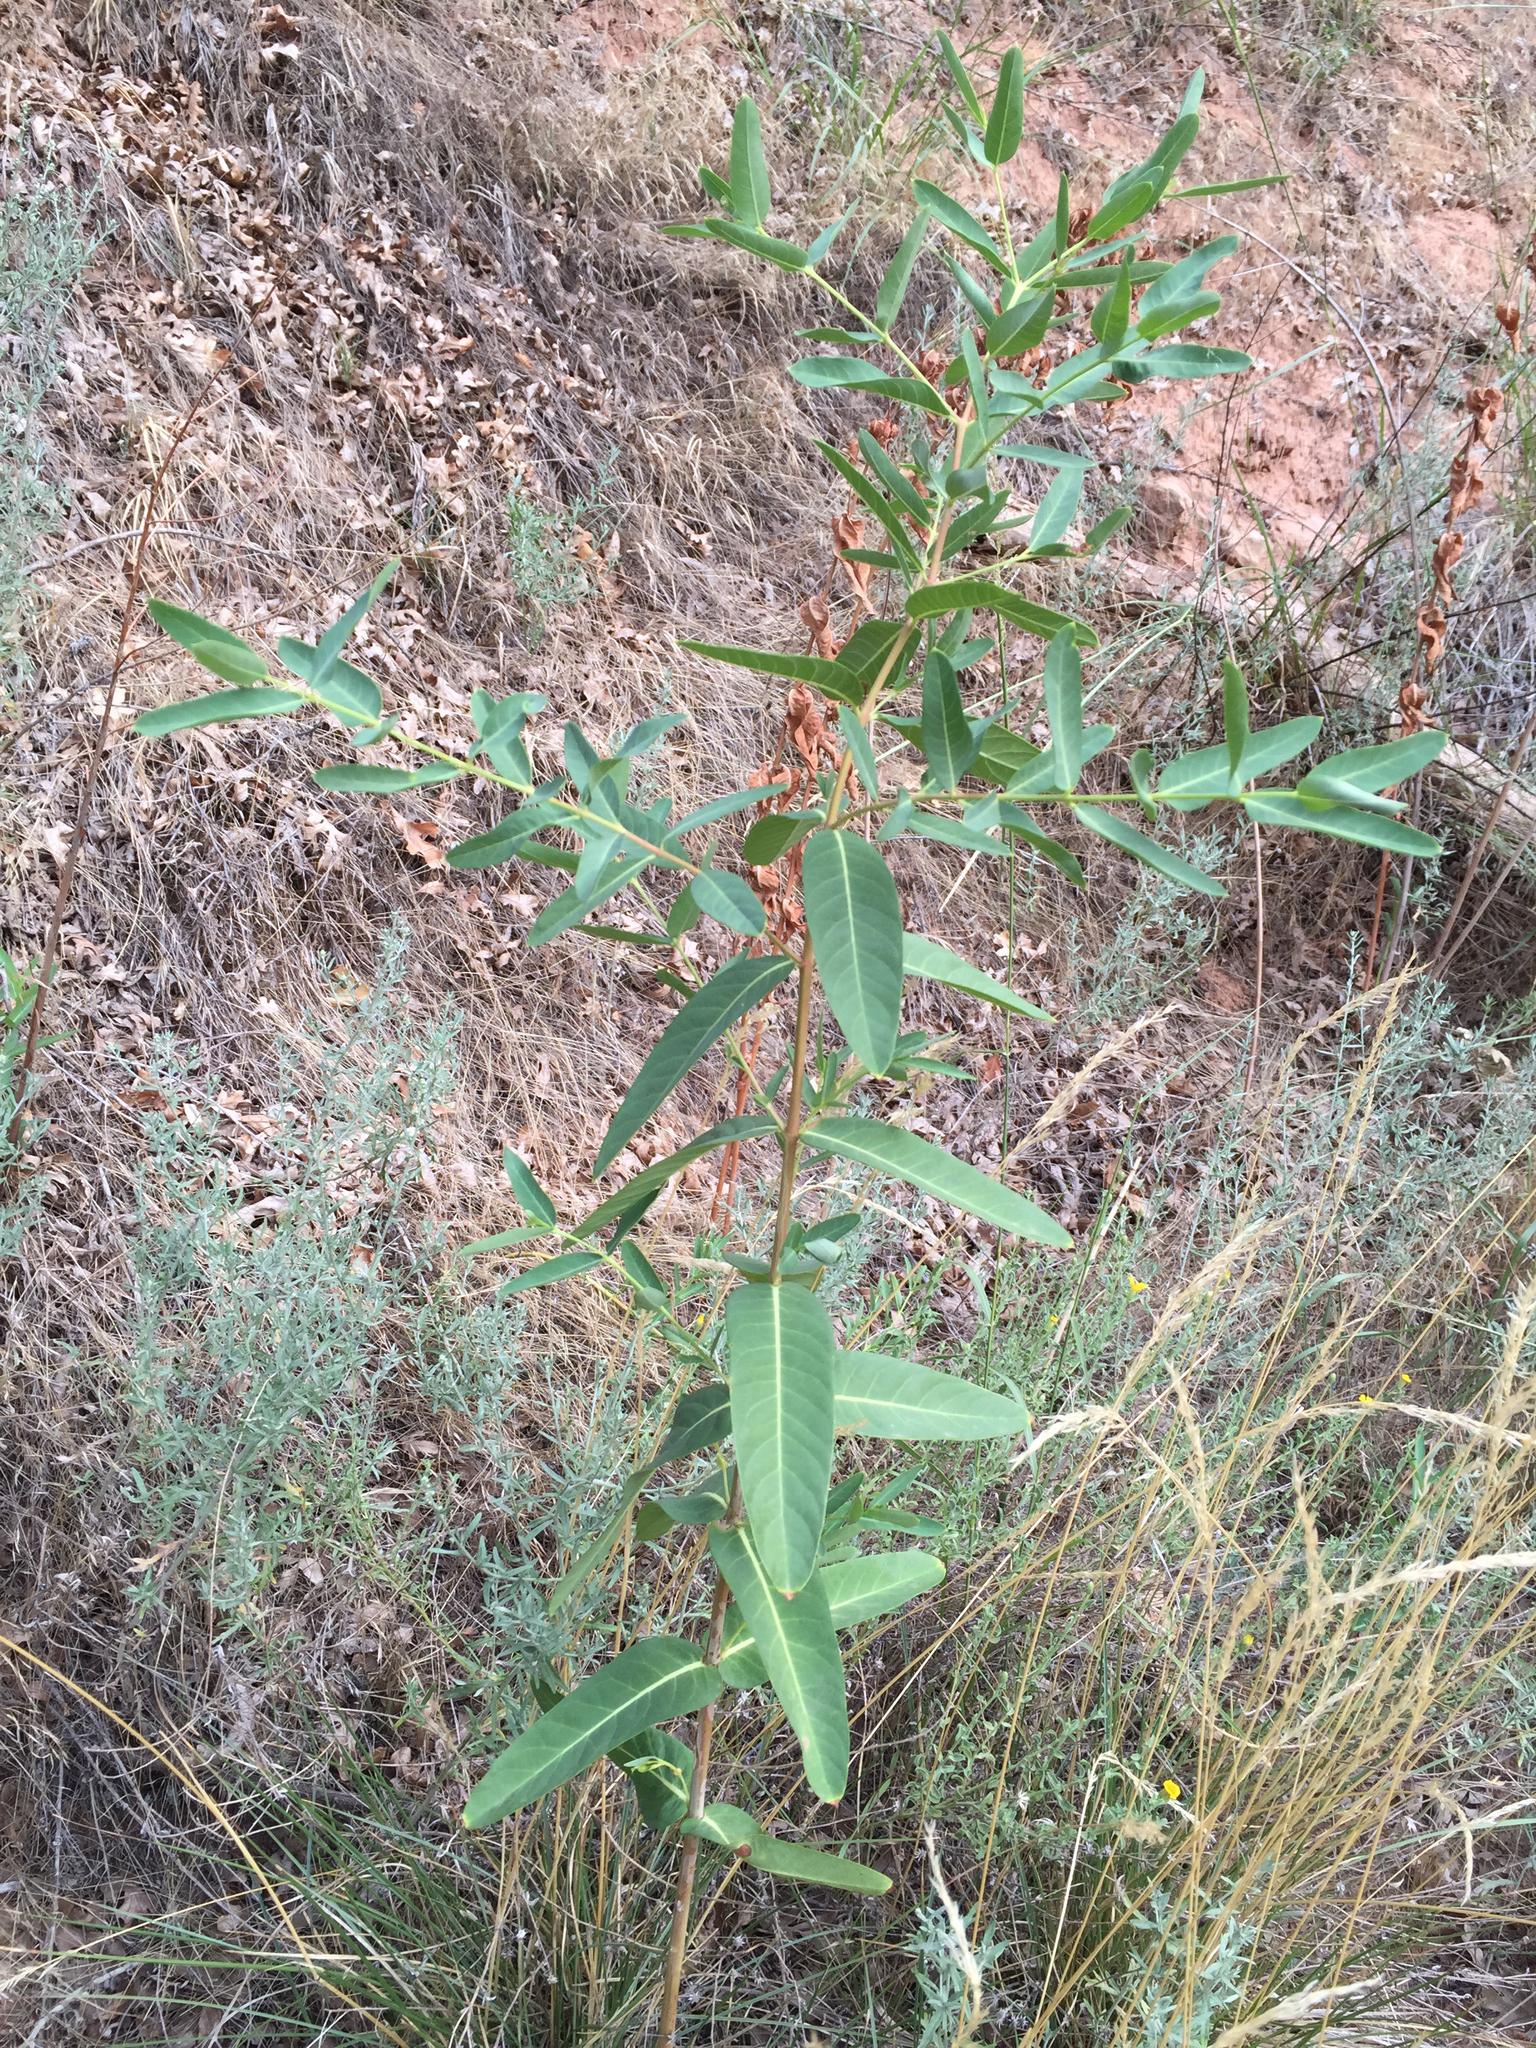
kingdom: Plantae
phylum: Tracheophyta
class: Magnoliopsida
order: Gentianales
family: Apocynaceae
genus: Apocynum
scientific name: Apocynum cannabinum
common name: Hemp dogbane
